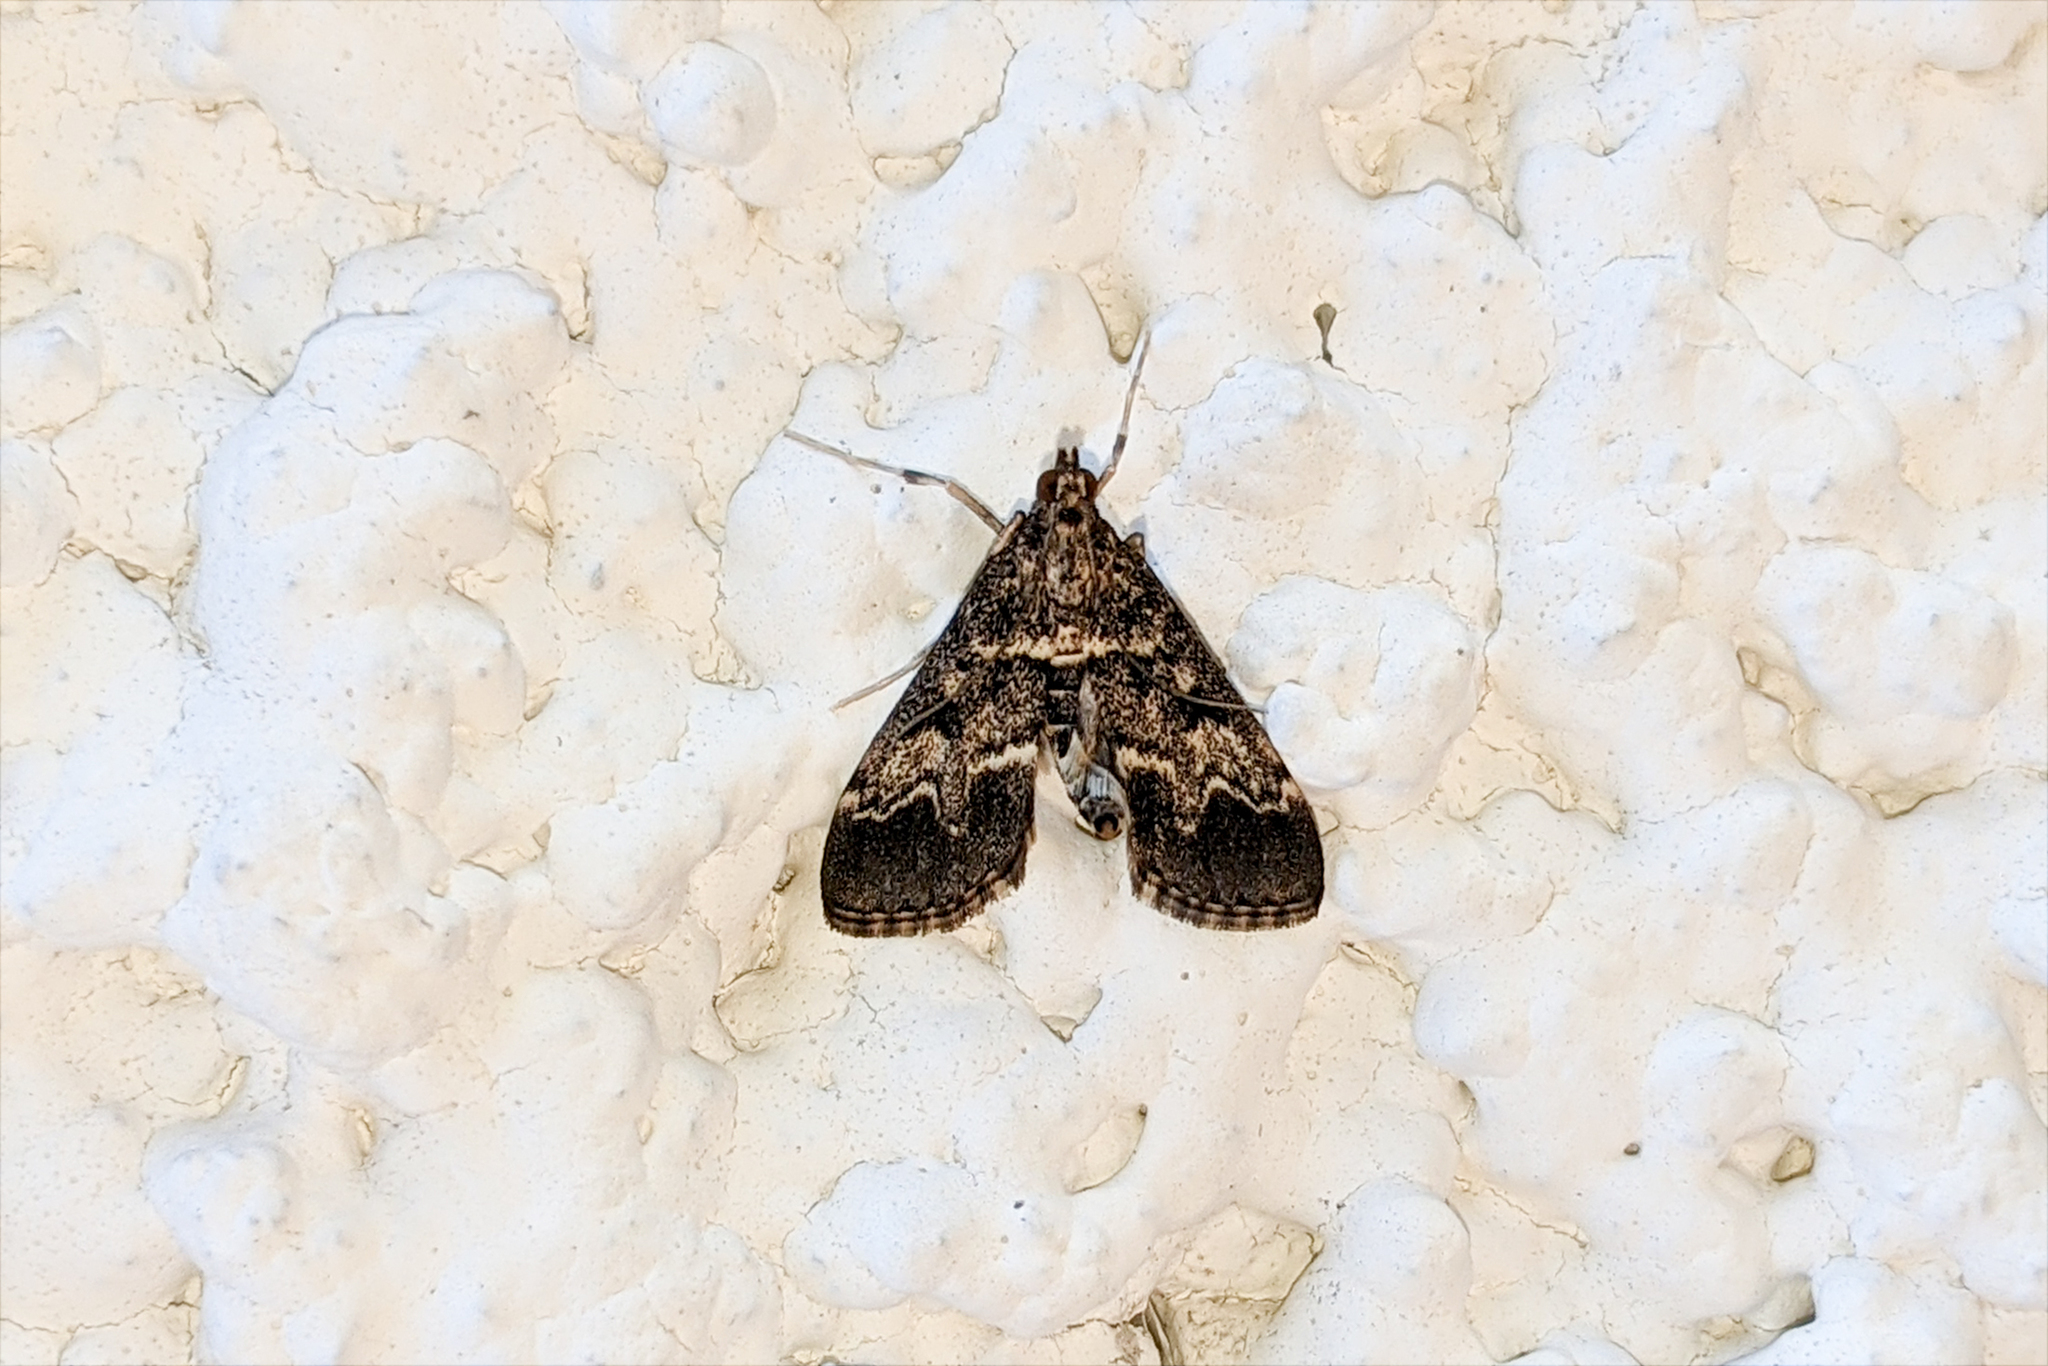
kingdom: Animalia
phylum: Arthropoda
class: Insecta
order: Lepidoptera
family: Crambidae
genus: Duponchelia
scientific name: Duponchelia fovealis
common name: Crambid moth
